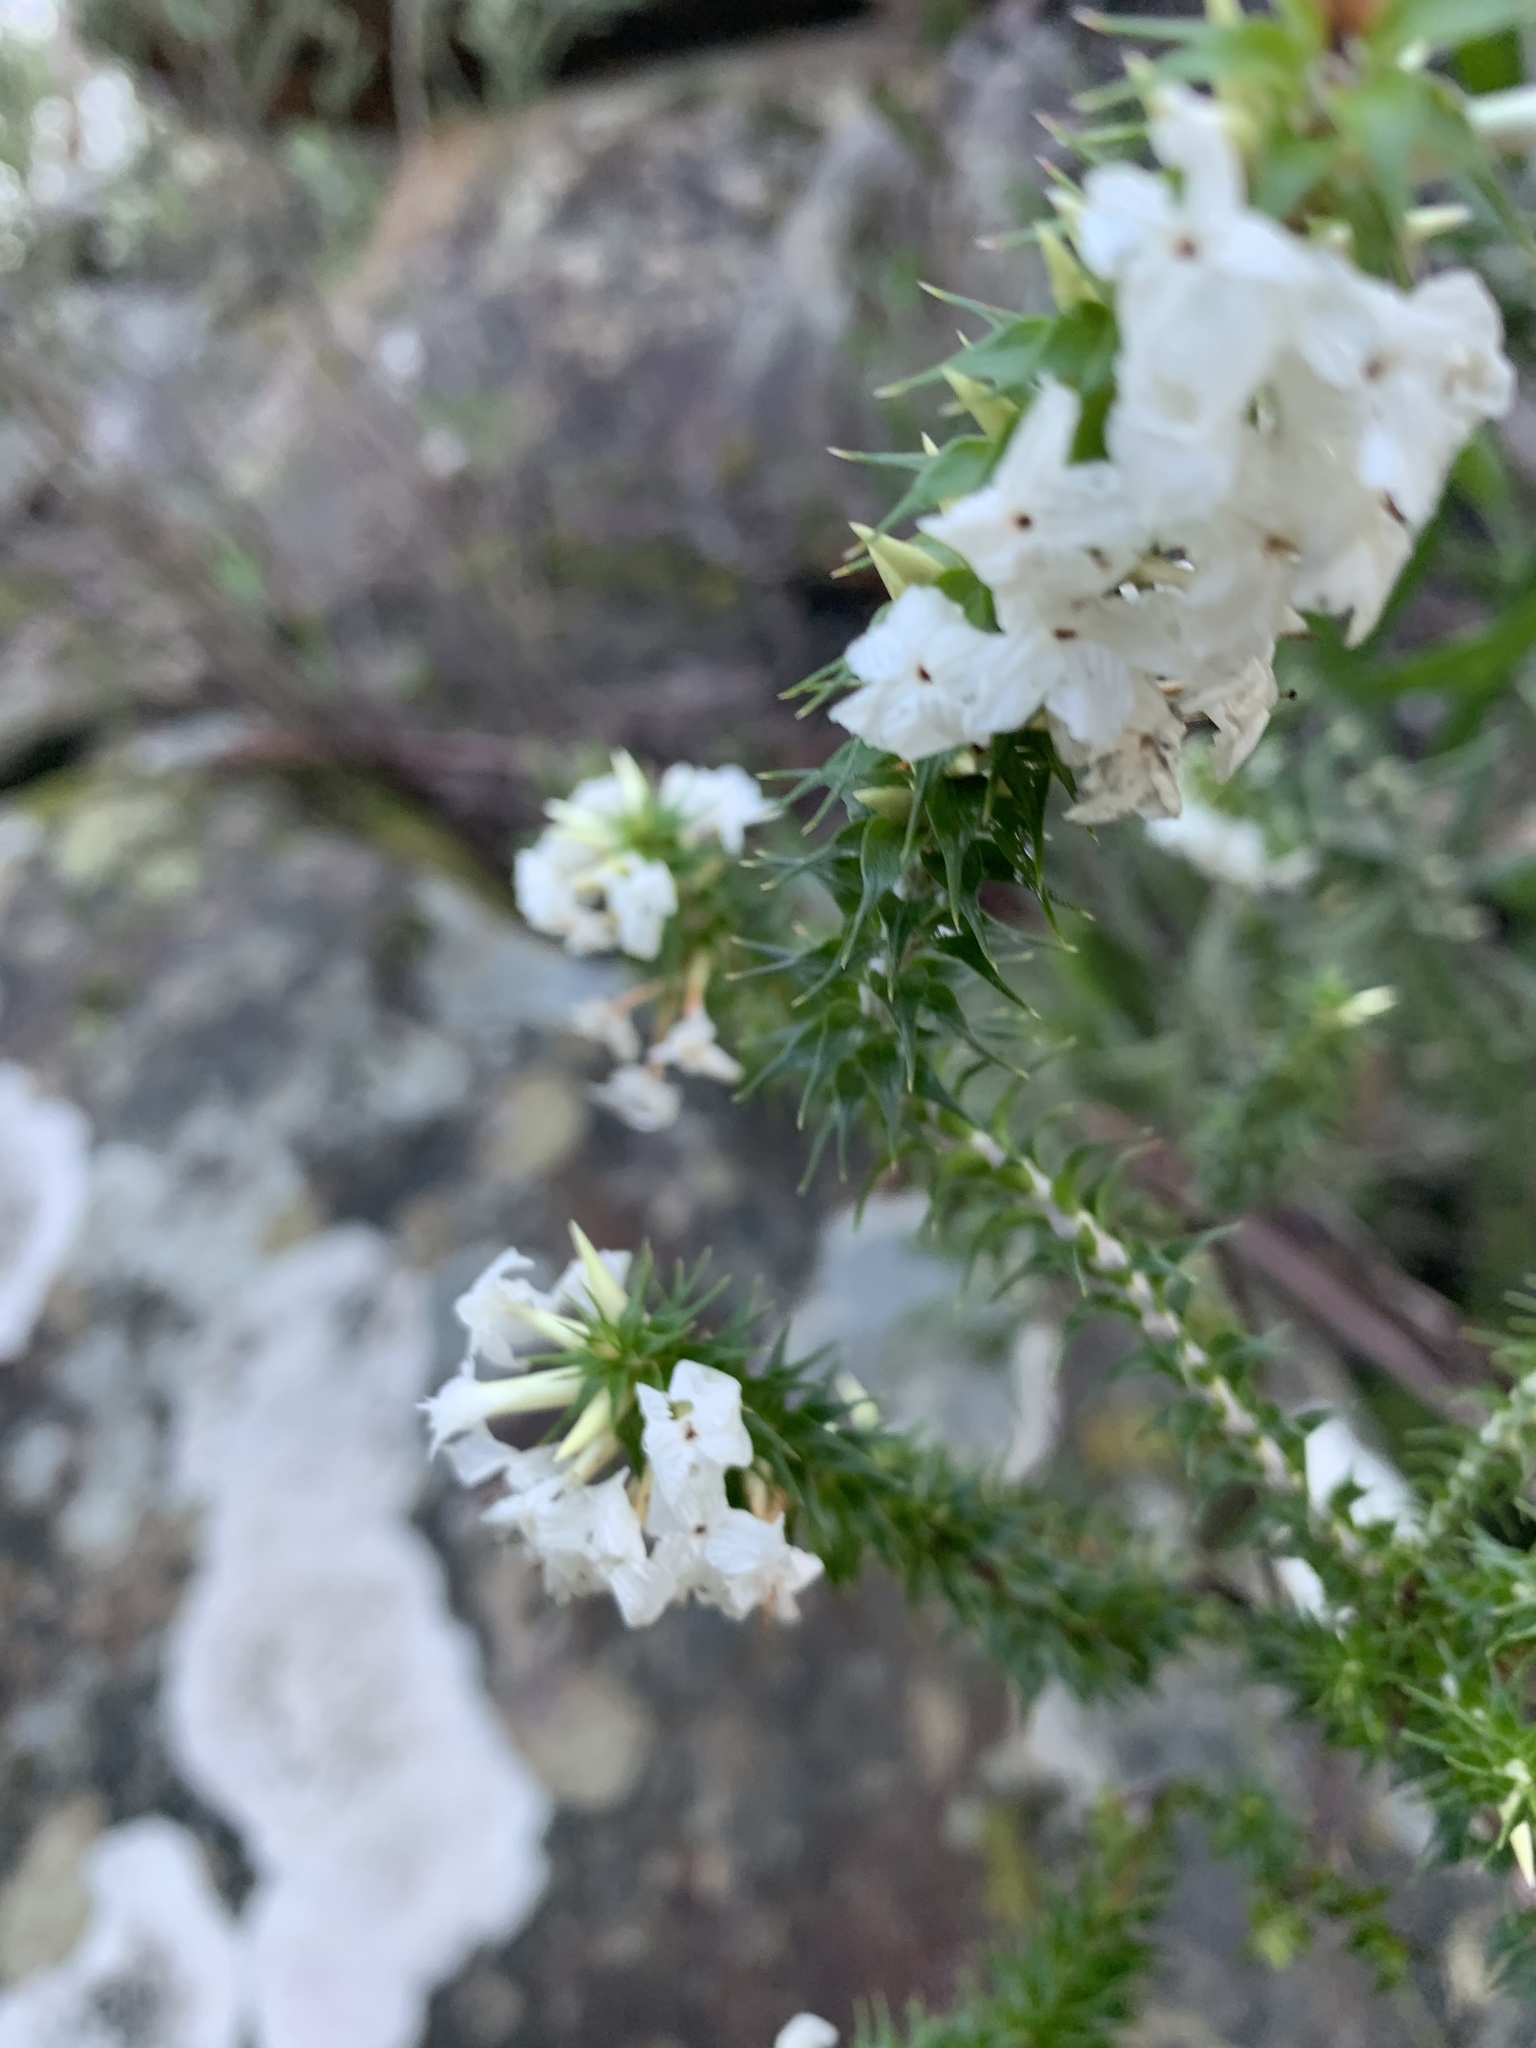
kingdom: Plantae
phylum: Tracheophyta
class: Magnoliopsida
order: Ericales
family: Ericaceae
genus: Woollsia
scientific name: Woollsia pungens
